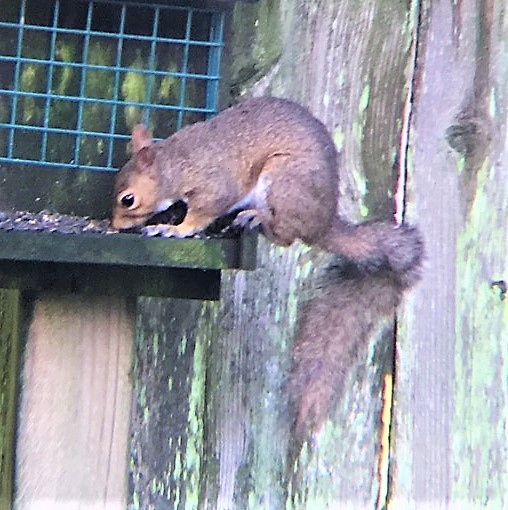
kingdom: Animalia
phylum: Chordata
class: Mammalia
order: Rodentia
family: Sciuridae
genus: Sciurus
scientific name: Sciurus carolinensis
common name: Eastern gray squirrel
